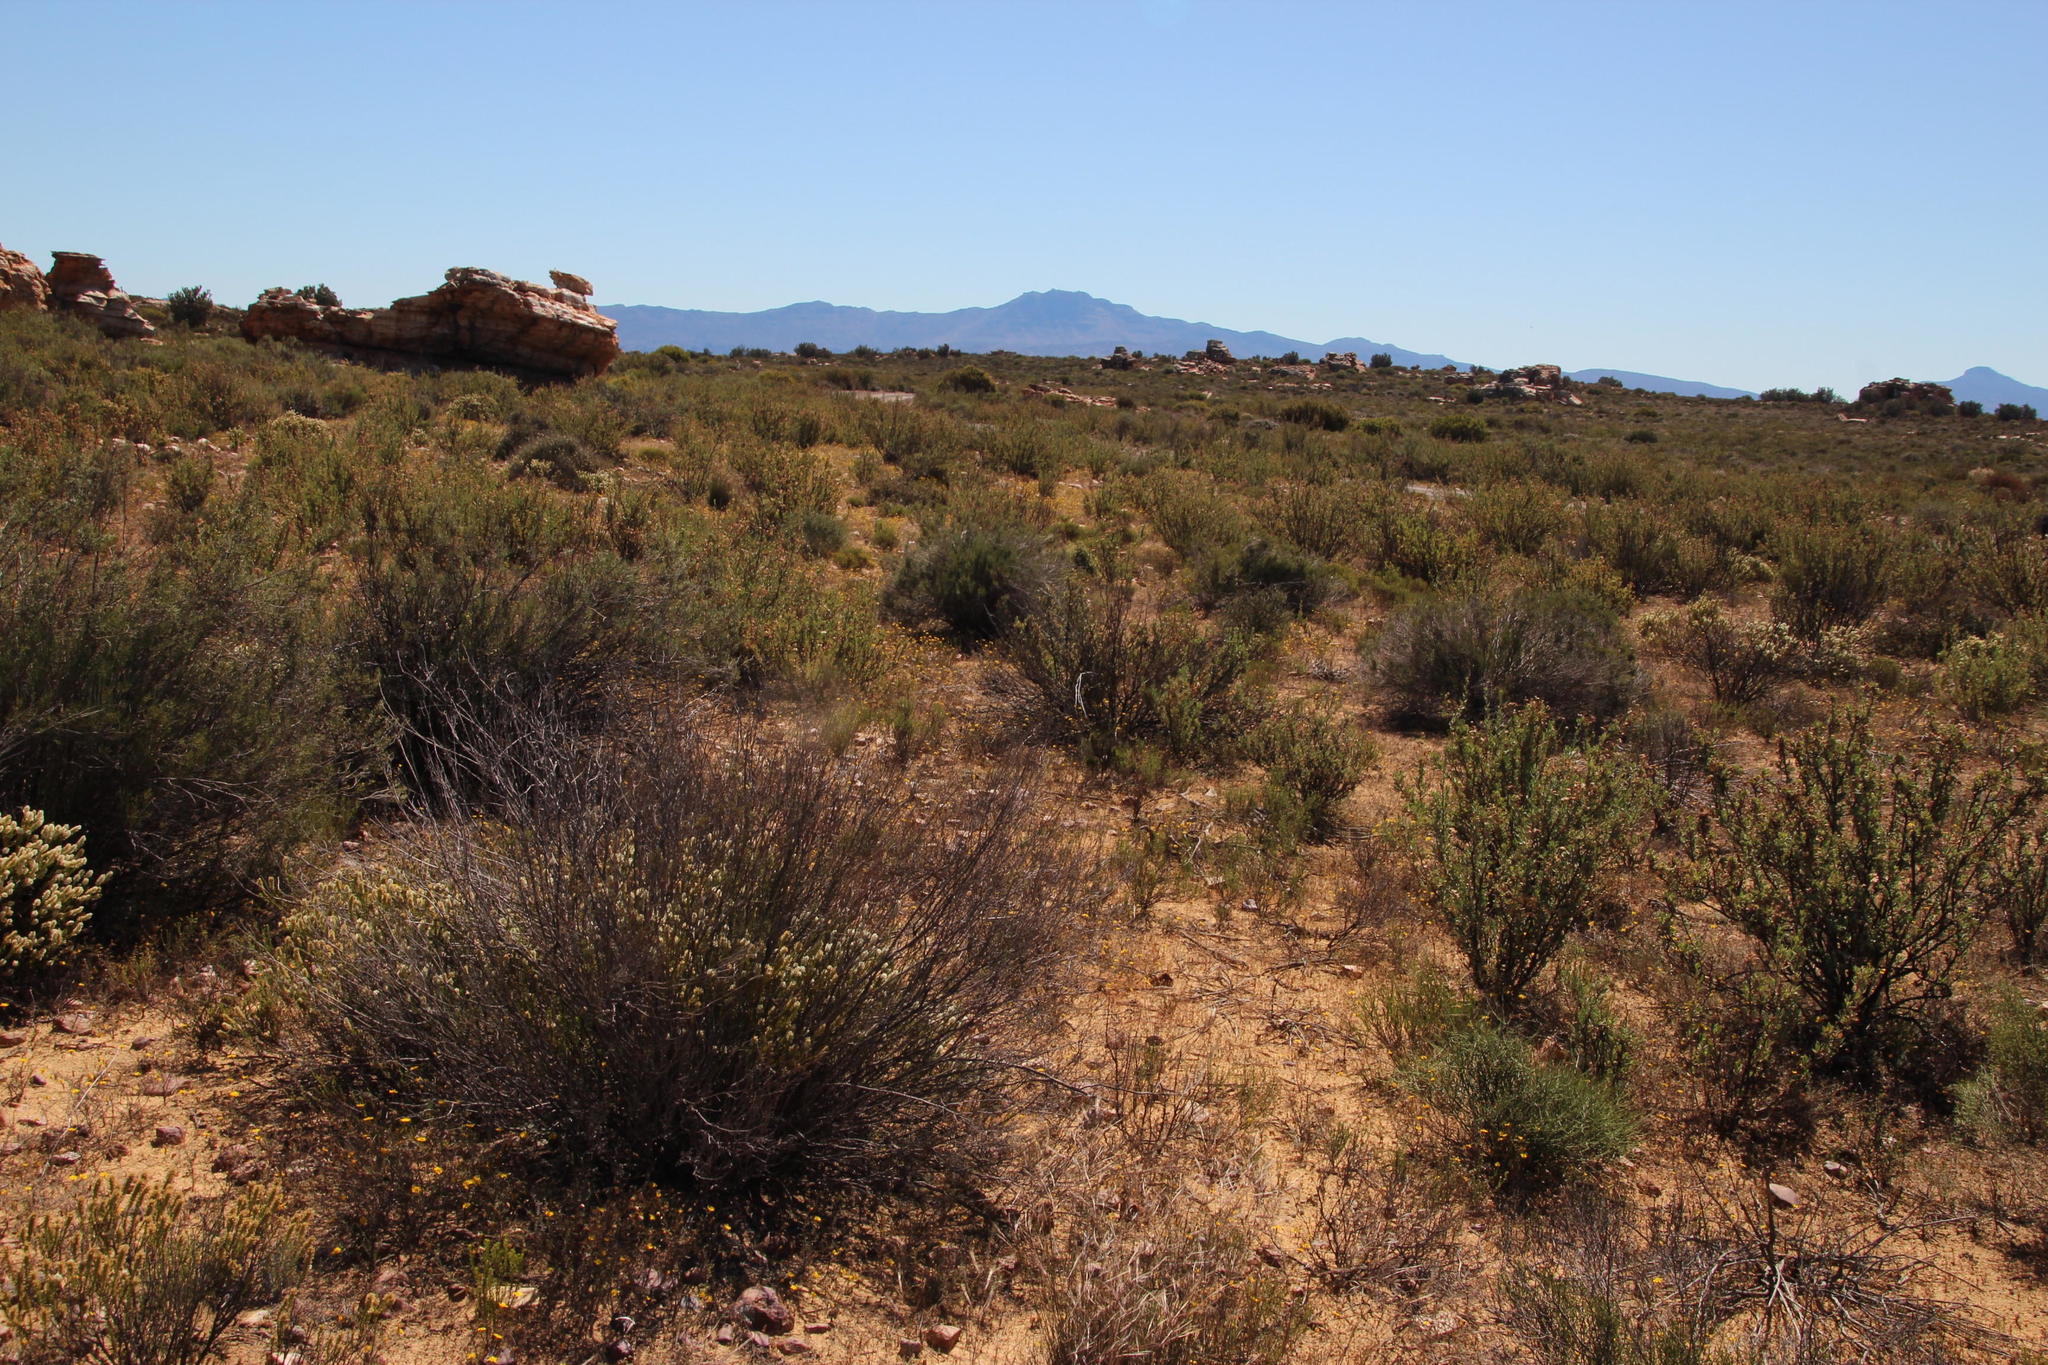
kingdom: Plantae
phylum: Tracheophyta
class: Magnoliopsida
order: Asterales
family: Asteraceae
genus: Leysera
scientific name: Leysera tenella
